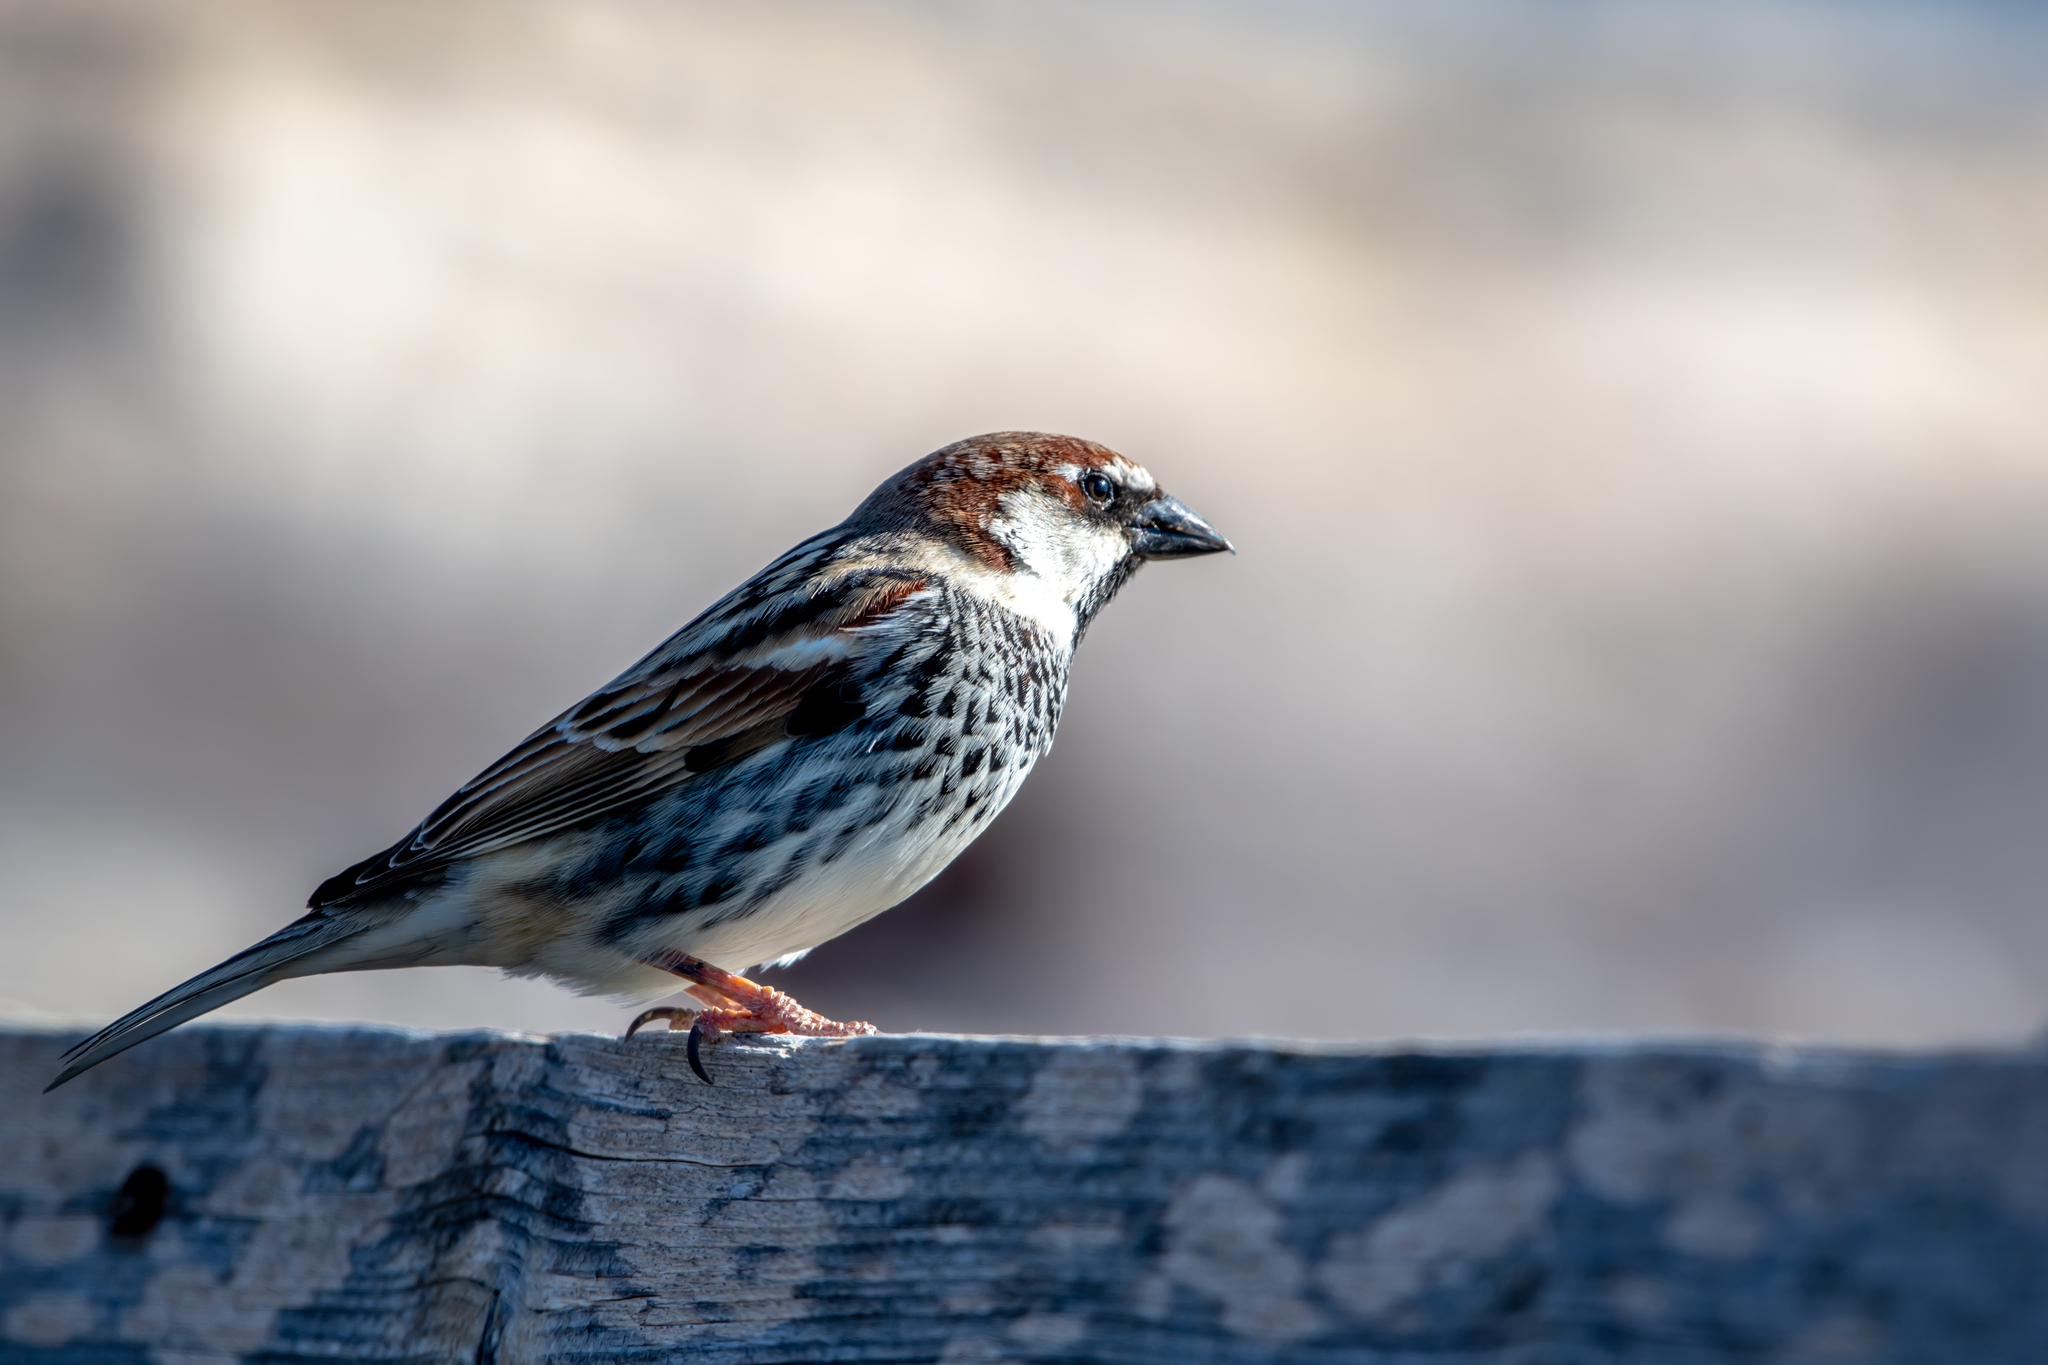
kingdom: Animalia
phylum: Chordata
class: Aves
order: Passeriformes
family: Passeridae
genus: Passer
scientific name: Passer hispaniolensis
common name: Spanish sparrow
